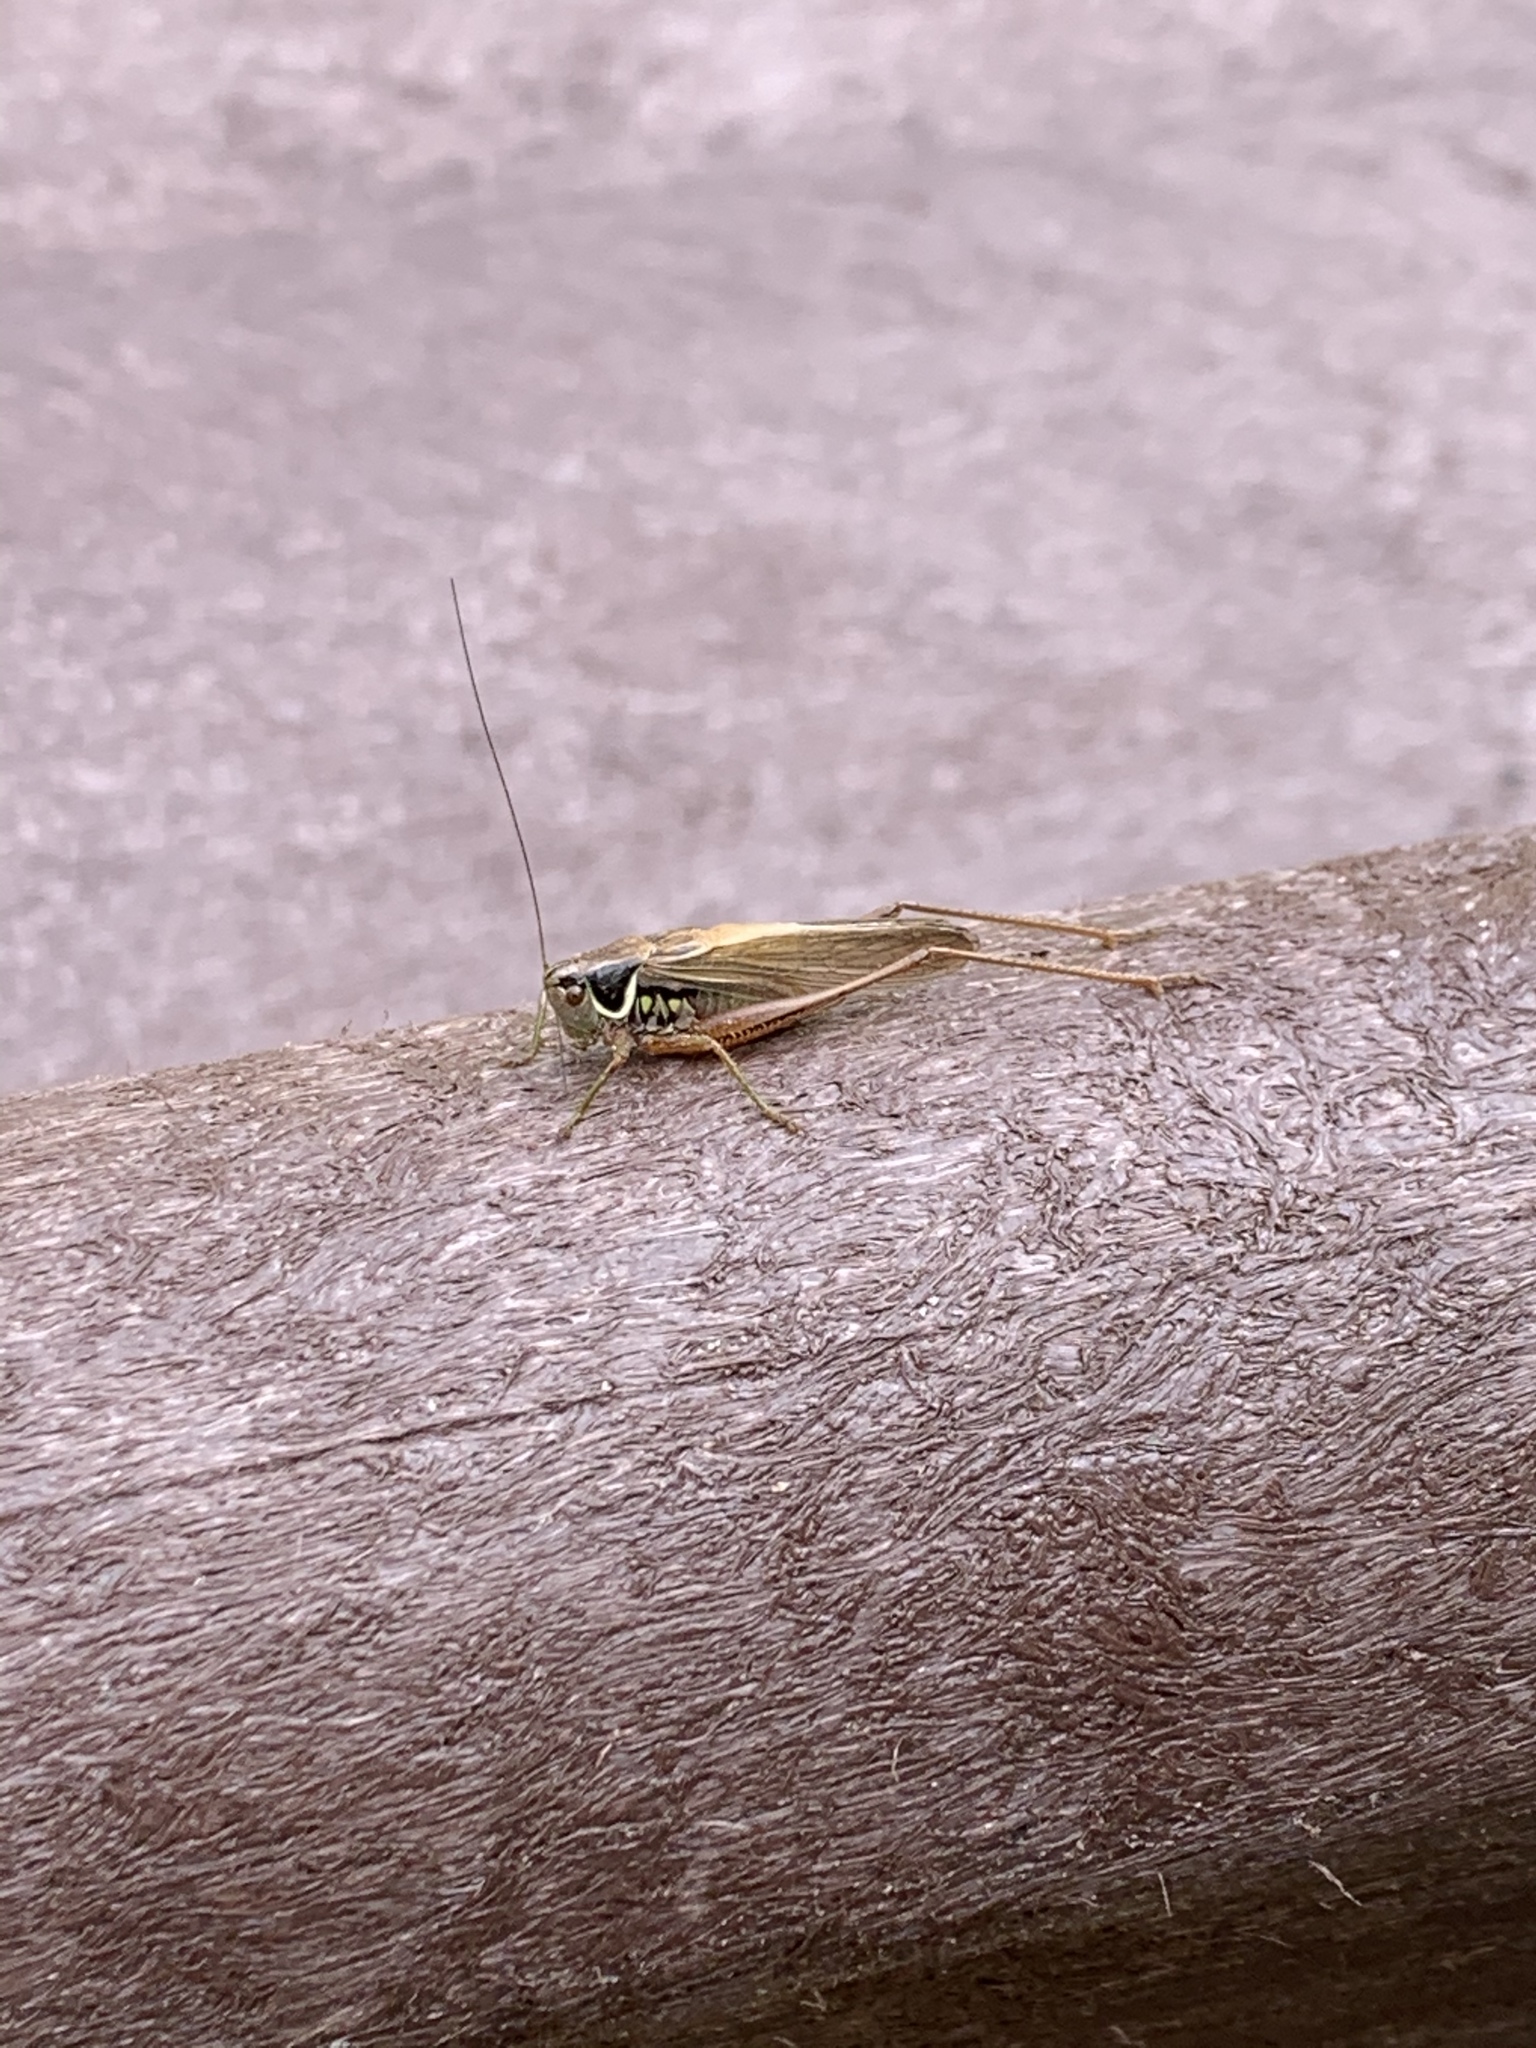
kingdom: Animalia
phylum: Arthropoda
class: Insecta
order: Orthoptera
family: Tettigoniidae
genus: Roeseliana
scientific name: Roeseliana roeselii
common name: Roesel's bush cricket
